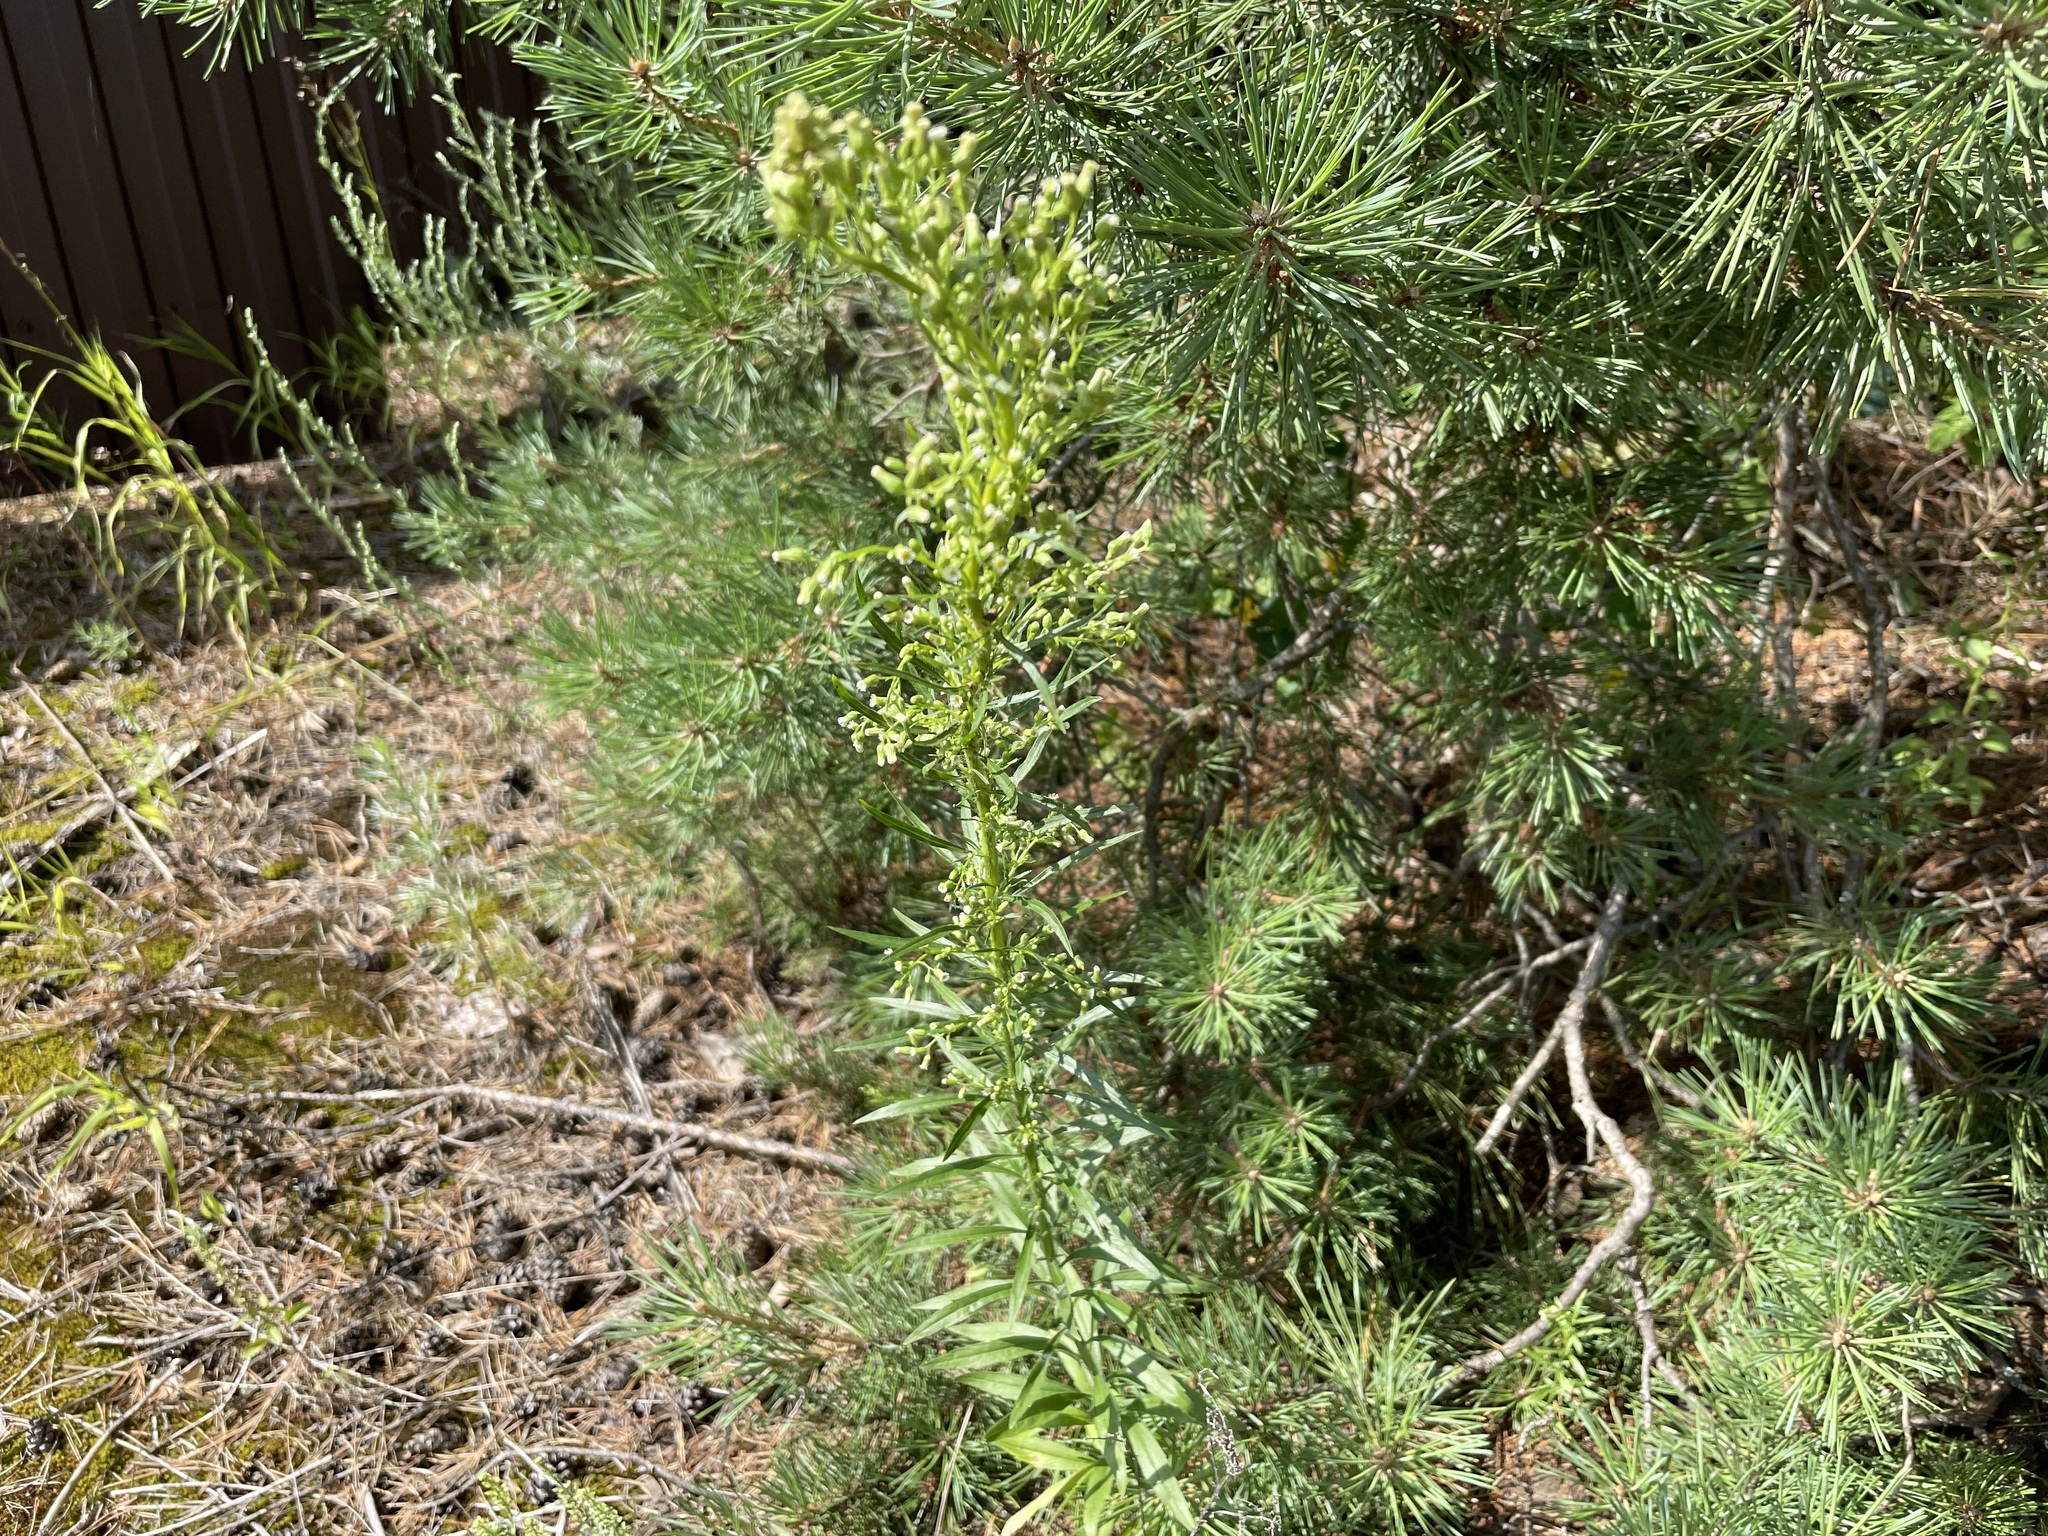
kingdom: Plantae
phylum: Tracheophyta
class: Magnoliopsida
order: Asterales
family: Asteraceae
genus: Erigeron
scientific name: Erigeron canadensis
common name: Canadian fleabane
